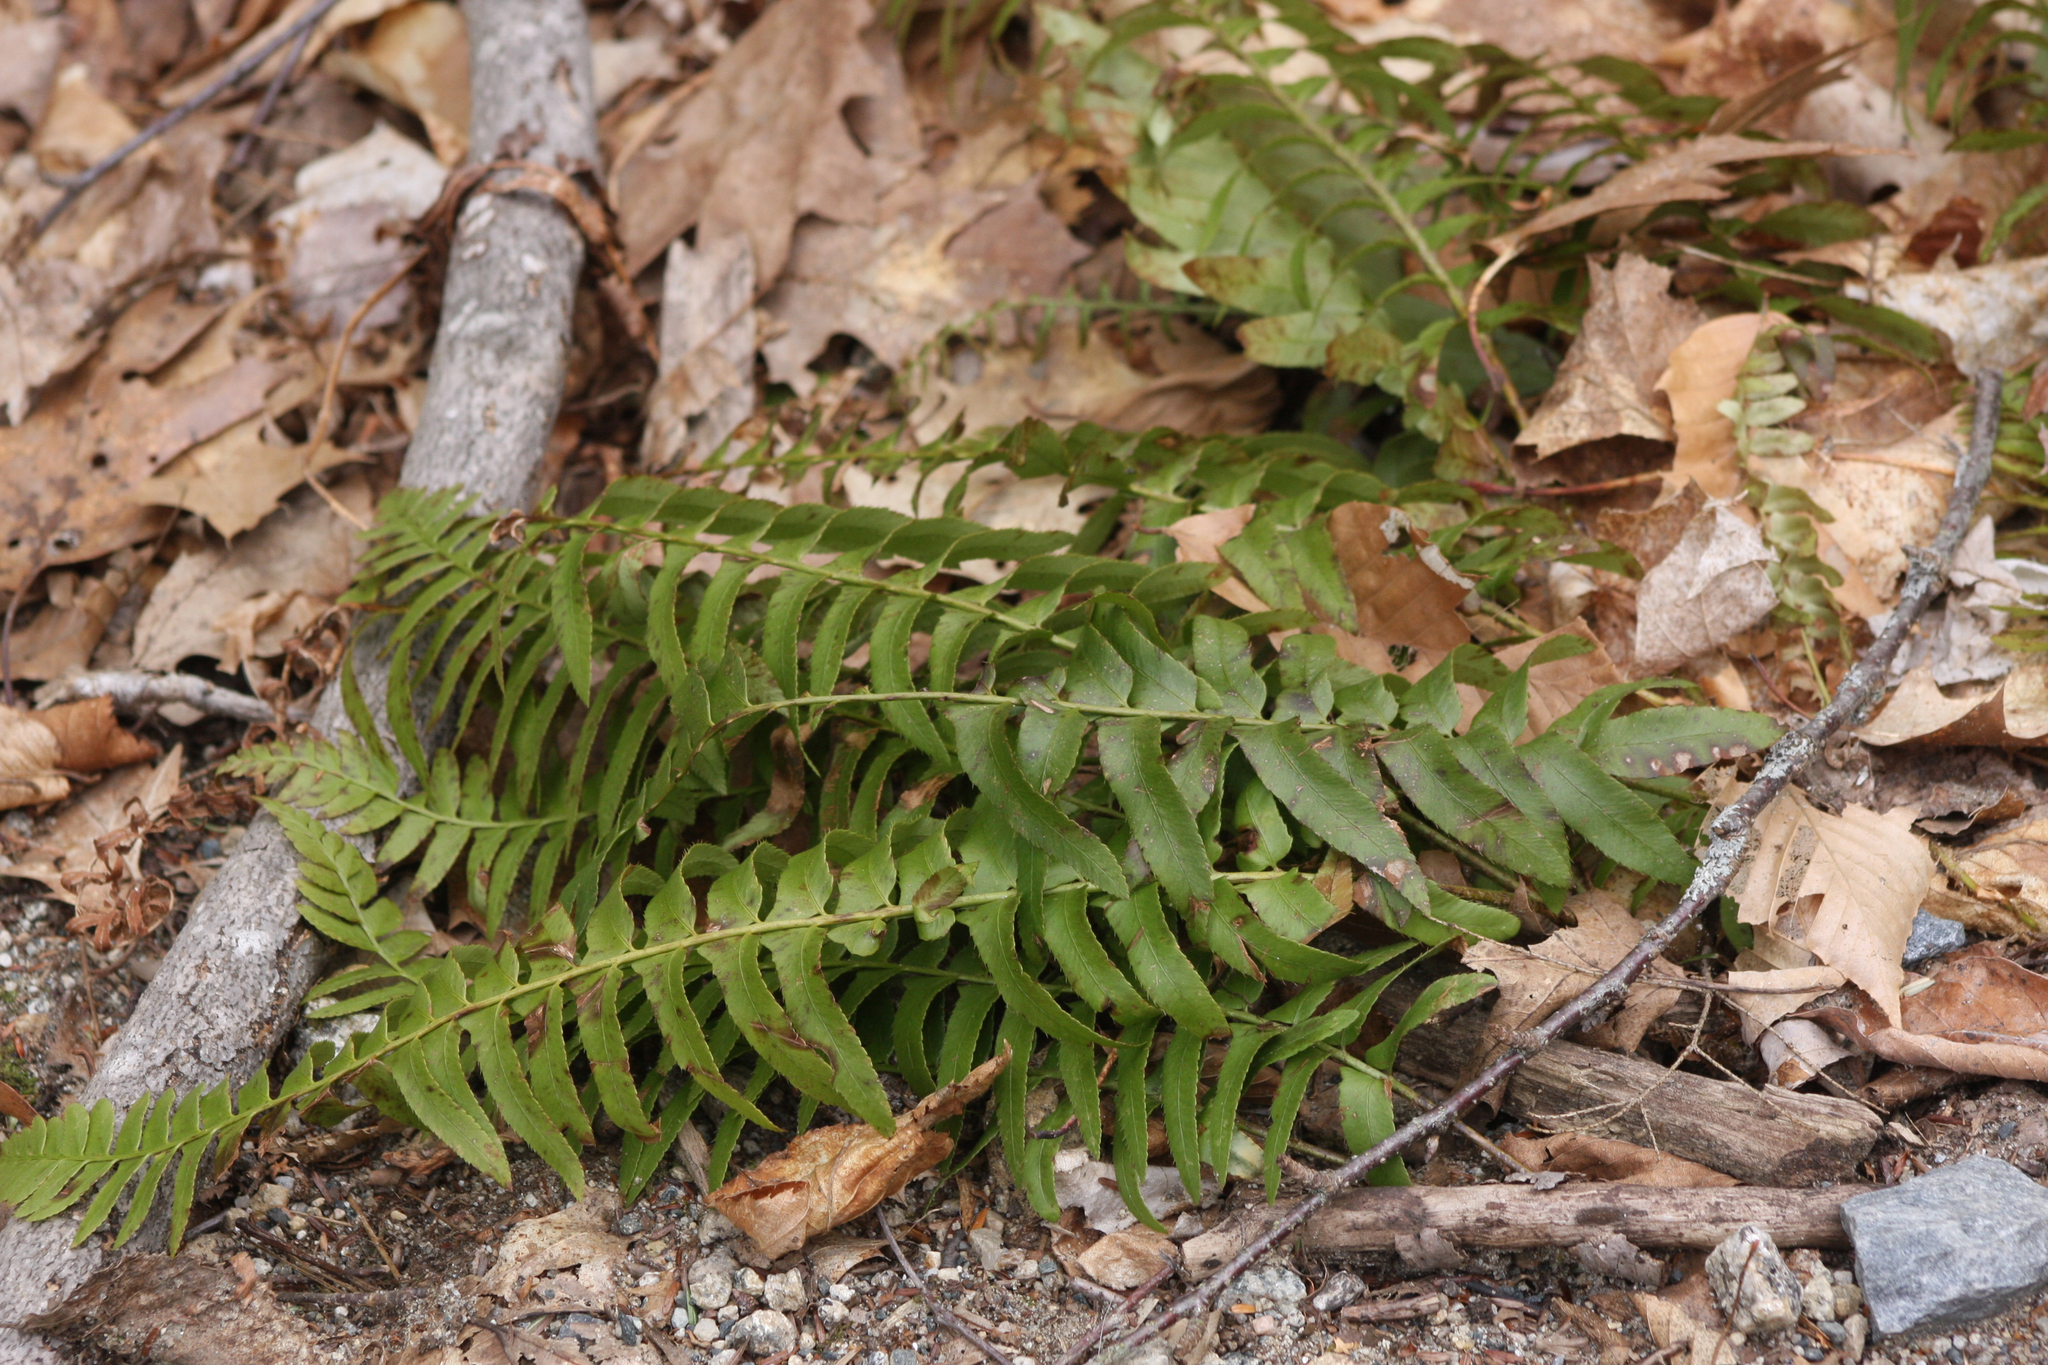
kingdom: Plantae
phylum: Tracheophyta
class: Polypodiopsida
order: Polypodiales
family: Dryopteridaceae
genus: Polystichum
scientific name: Polystichum acrostichoides
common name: Christmas fern
